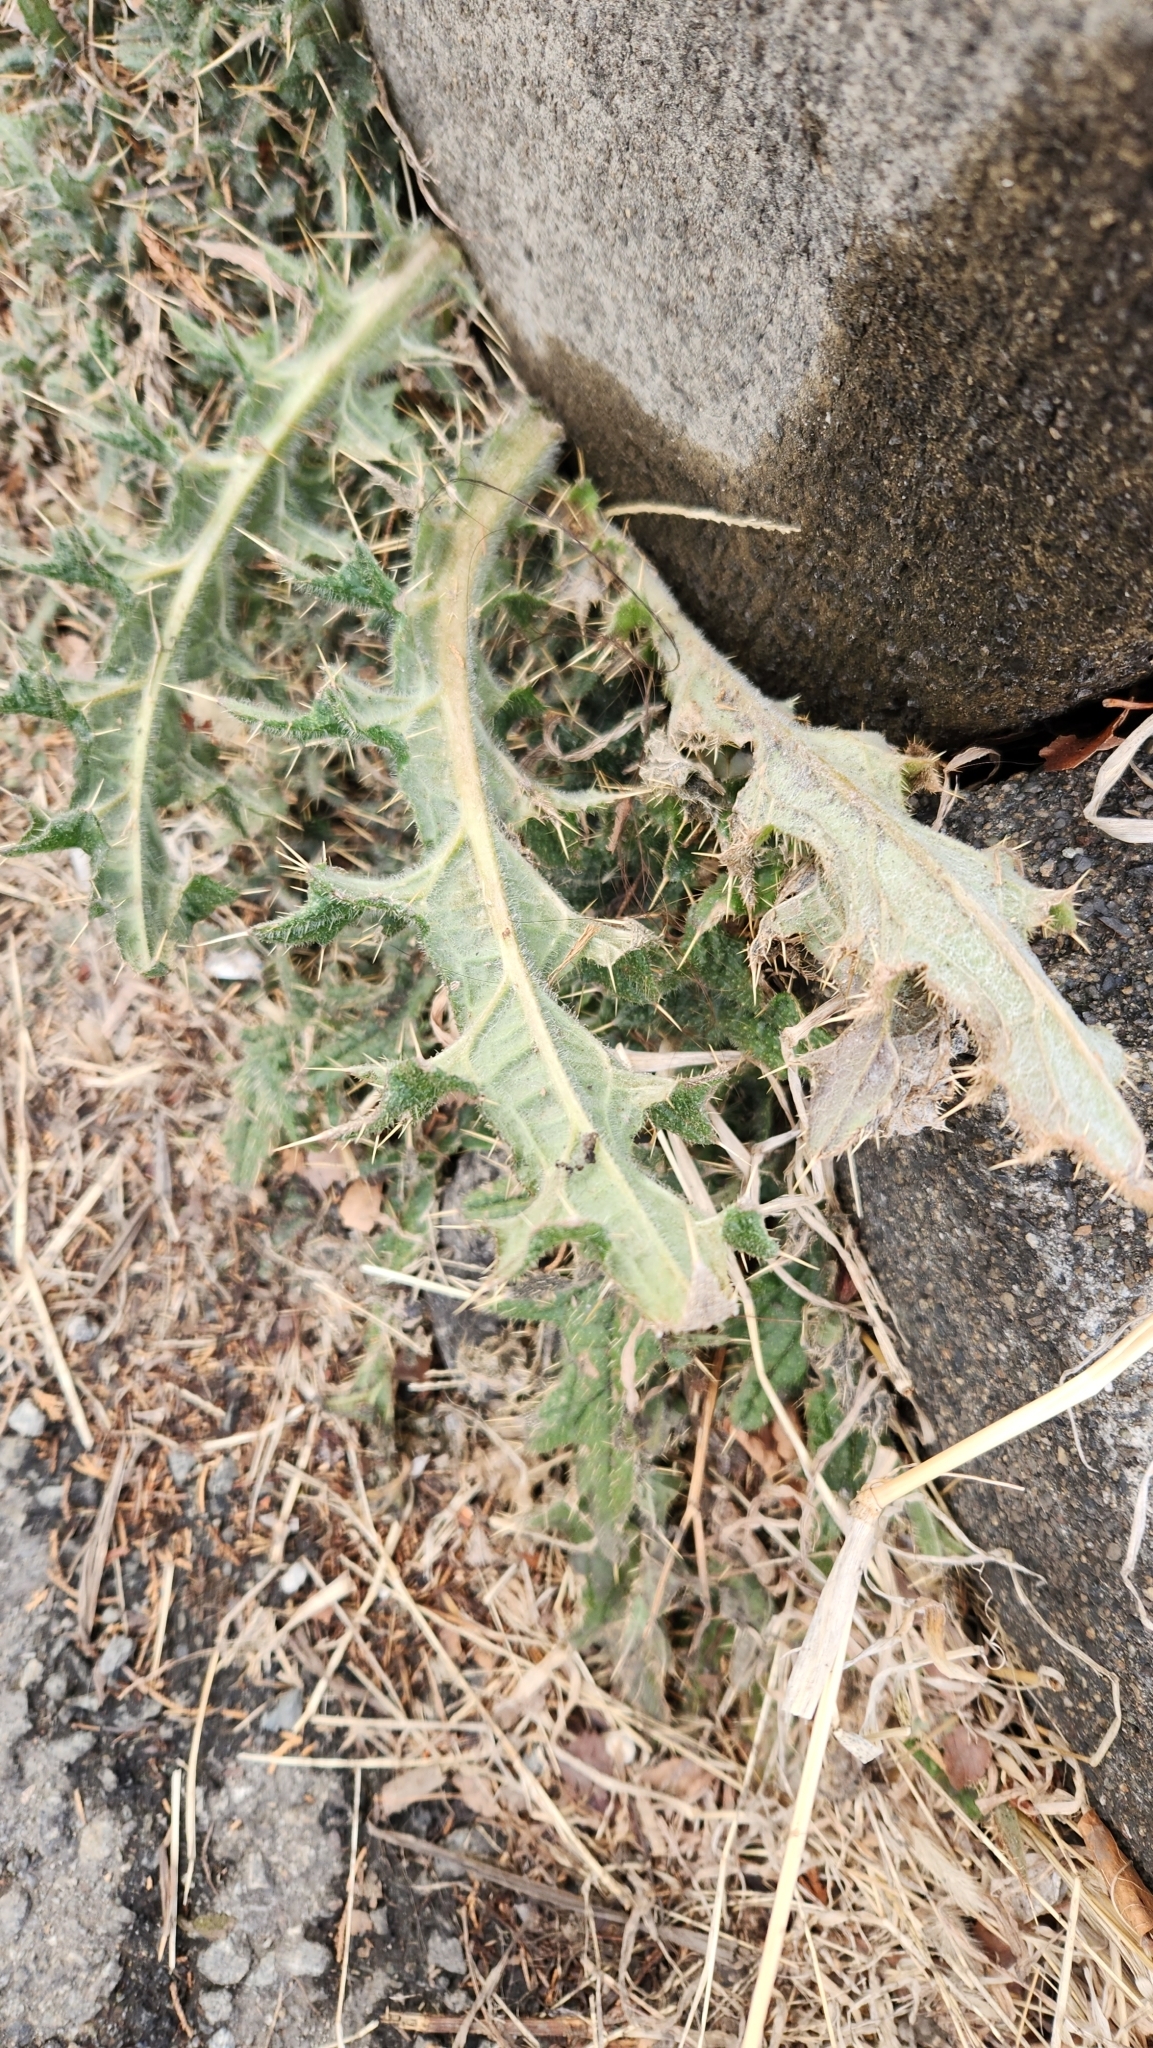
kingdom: Plantae
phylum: Tracheophyta
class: Magnoliopsida
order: Asterales
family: Asteraceae
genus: Cirsium
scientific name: Cirsium japonicum
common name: Japanese thistle
